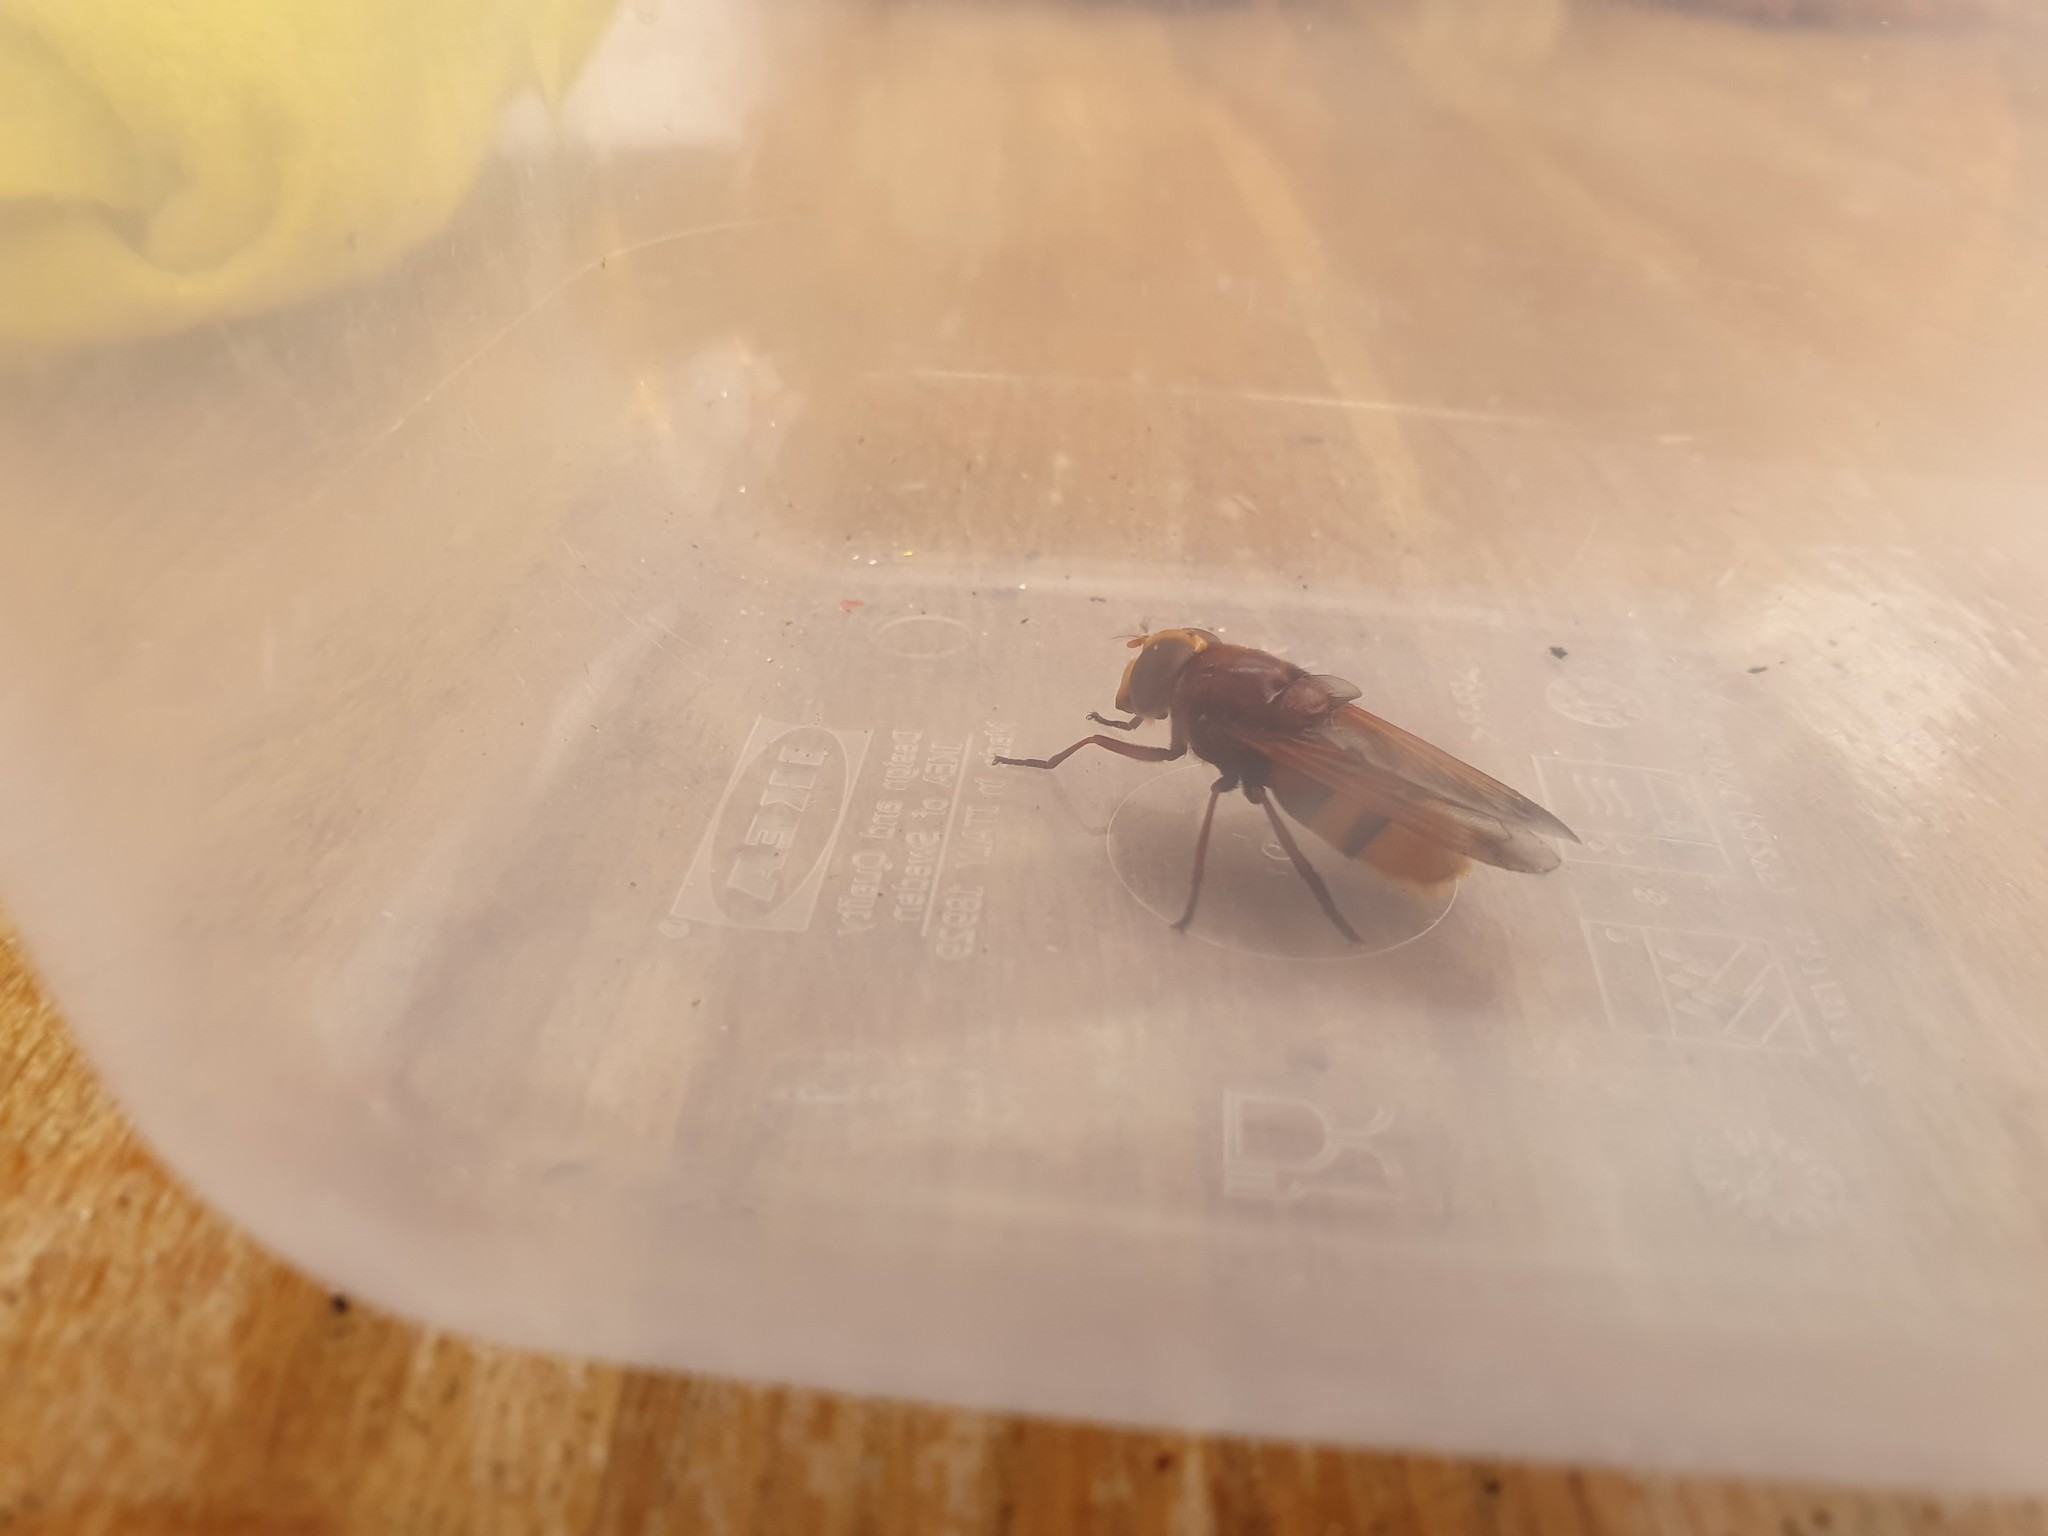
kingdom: Animalia
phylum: Arthropoda
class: Insecta
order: Diptera
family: Syrphidae
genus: Volucella
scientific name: Volucella zonaria
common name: Hornet hoverfly
